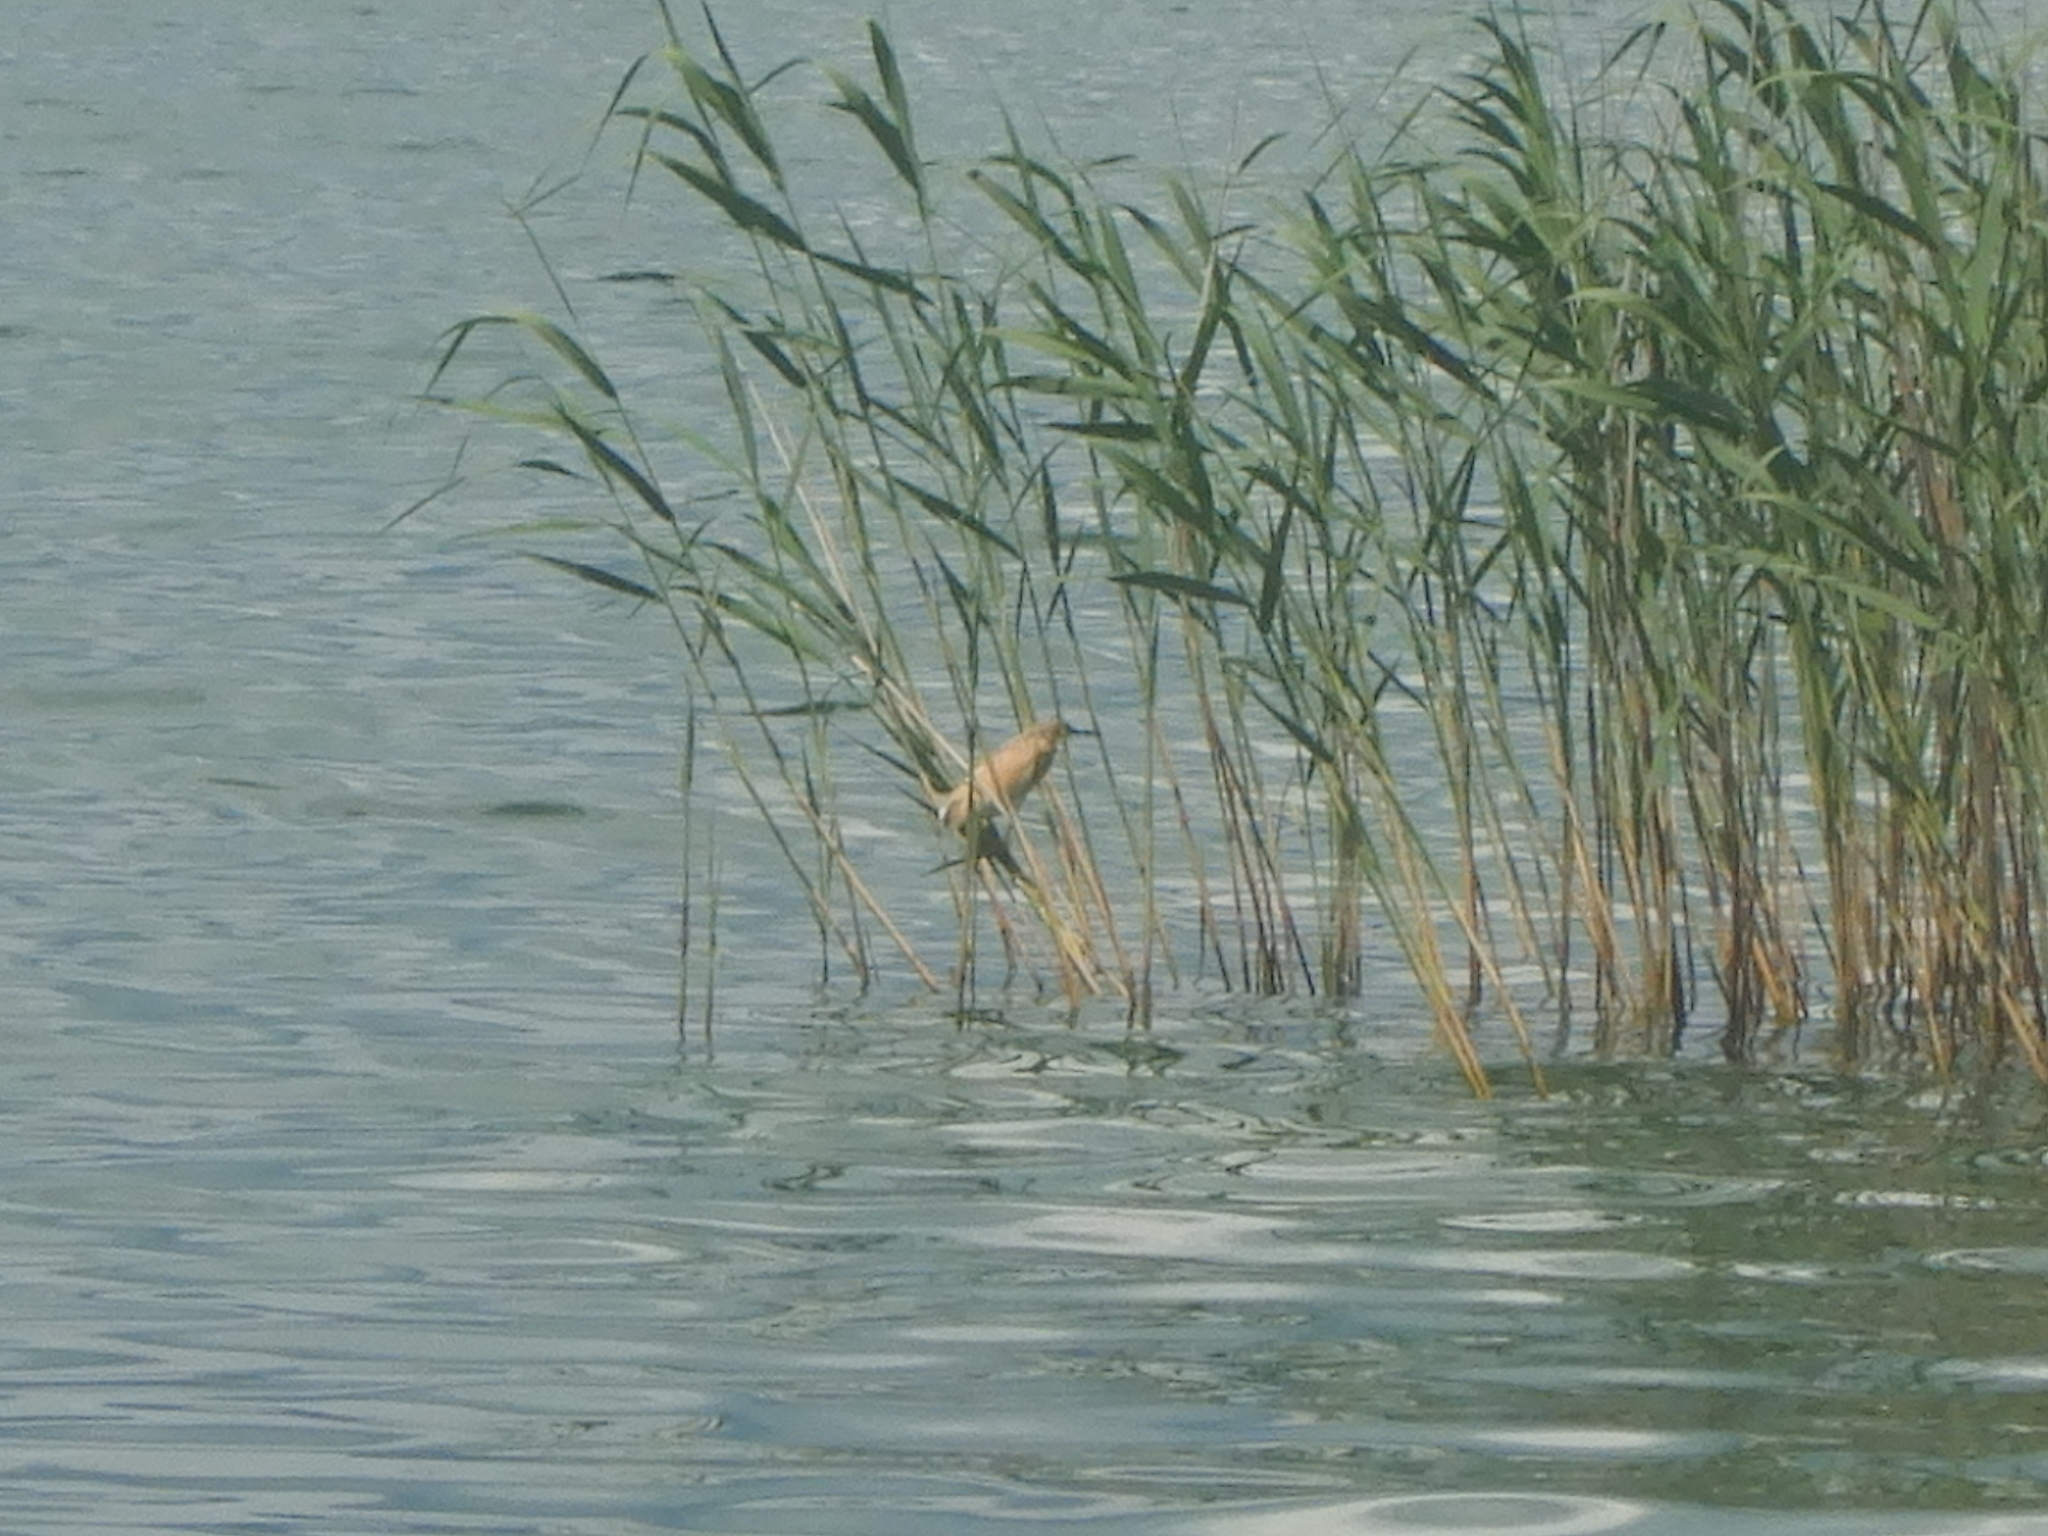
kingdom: Animalia
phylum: Chordata
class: Aves
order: Pelecaniformes
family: Ardeidae
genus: Ardeola
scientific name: Ardeola ralloides
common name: Squacco heron
